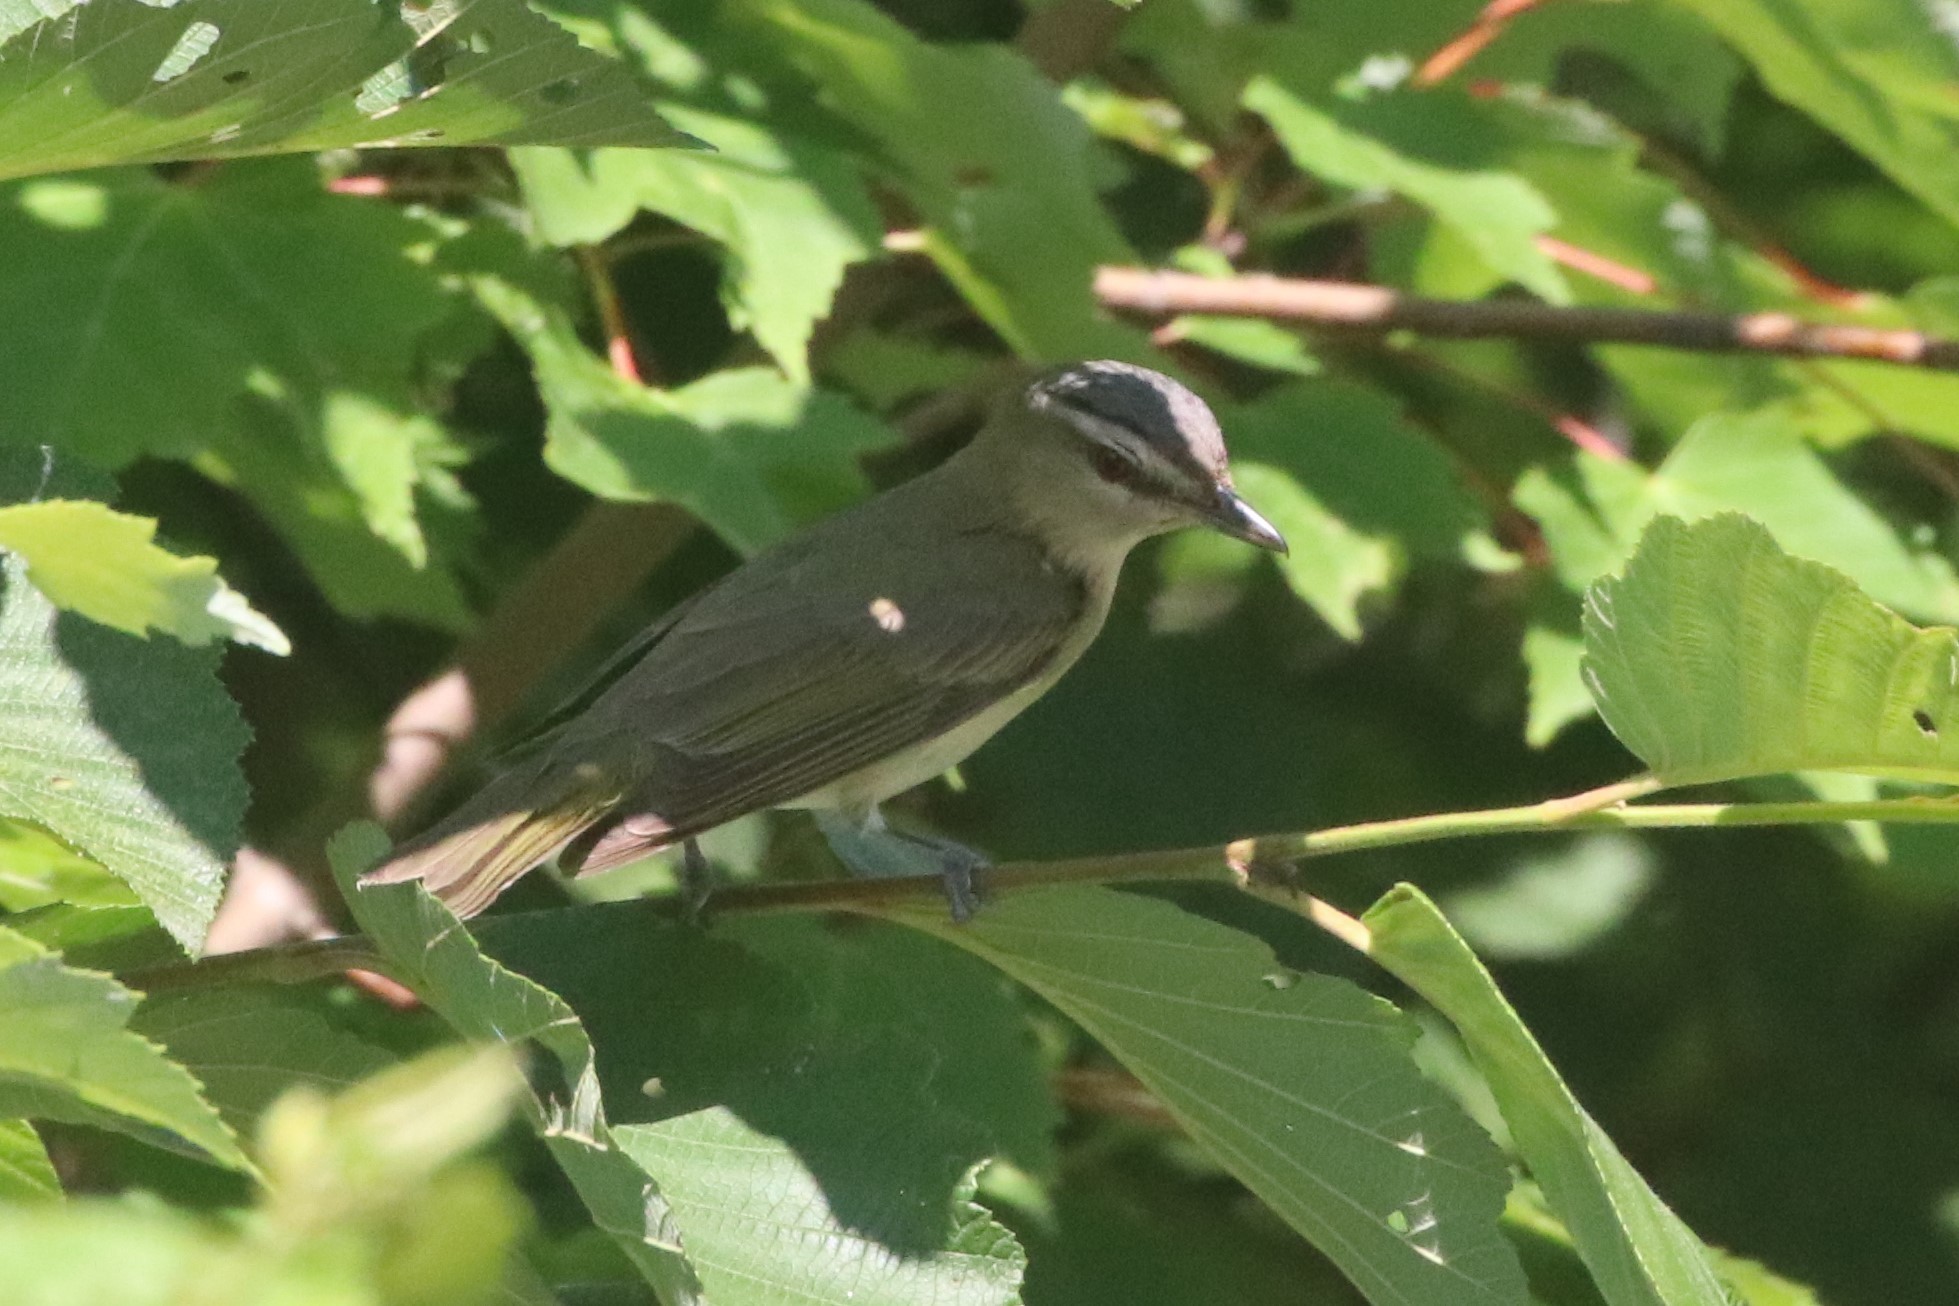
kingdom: Animalia
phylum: Chordata
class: Aves
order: Passeriformes
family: Vireonidae
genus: Vireo
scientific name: Vireo olivaceus
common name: Red-eyed vireo
